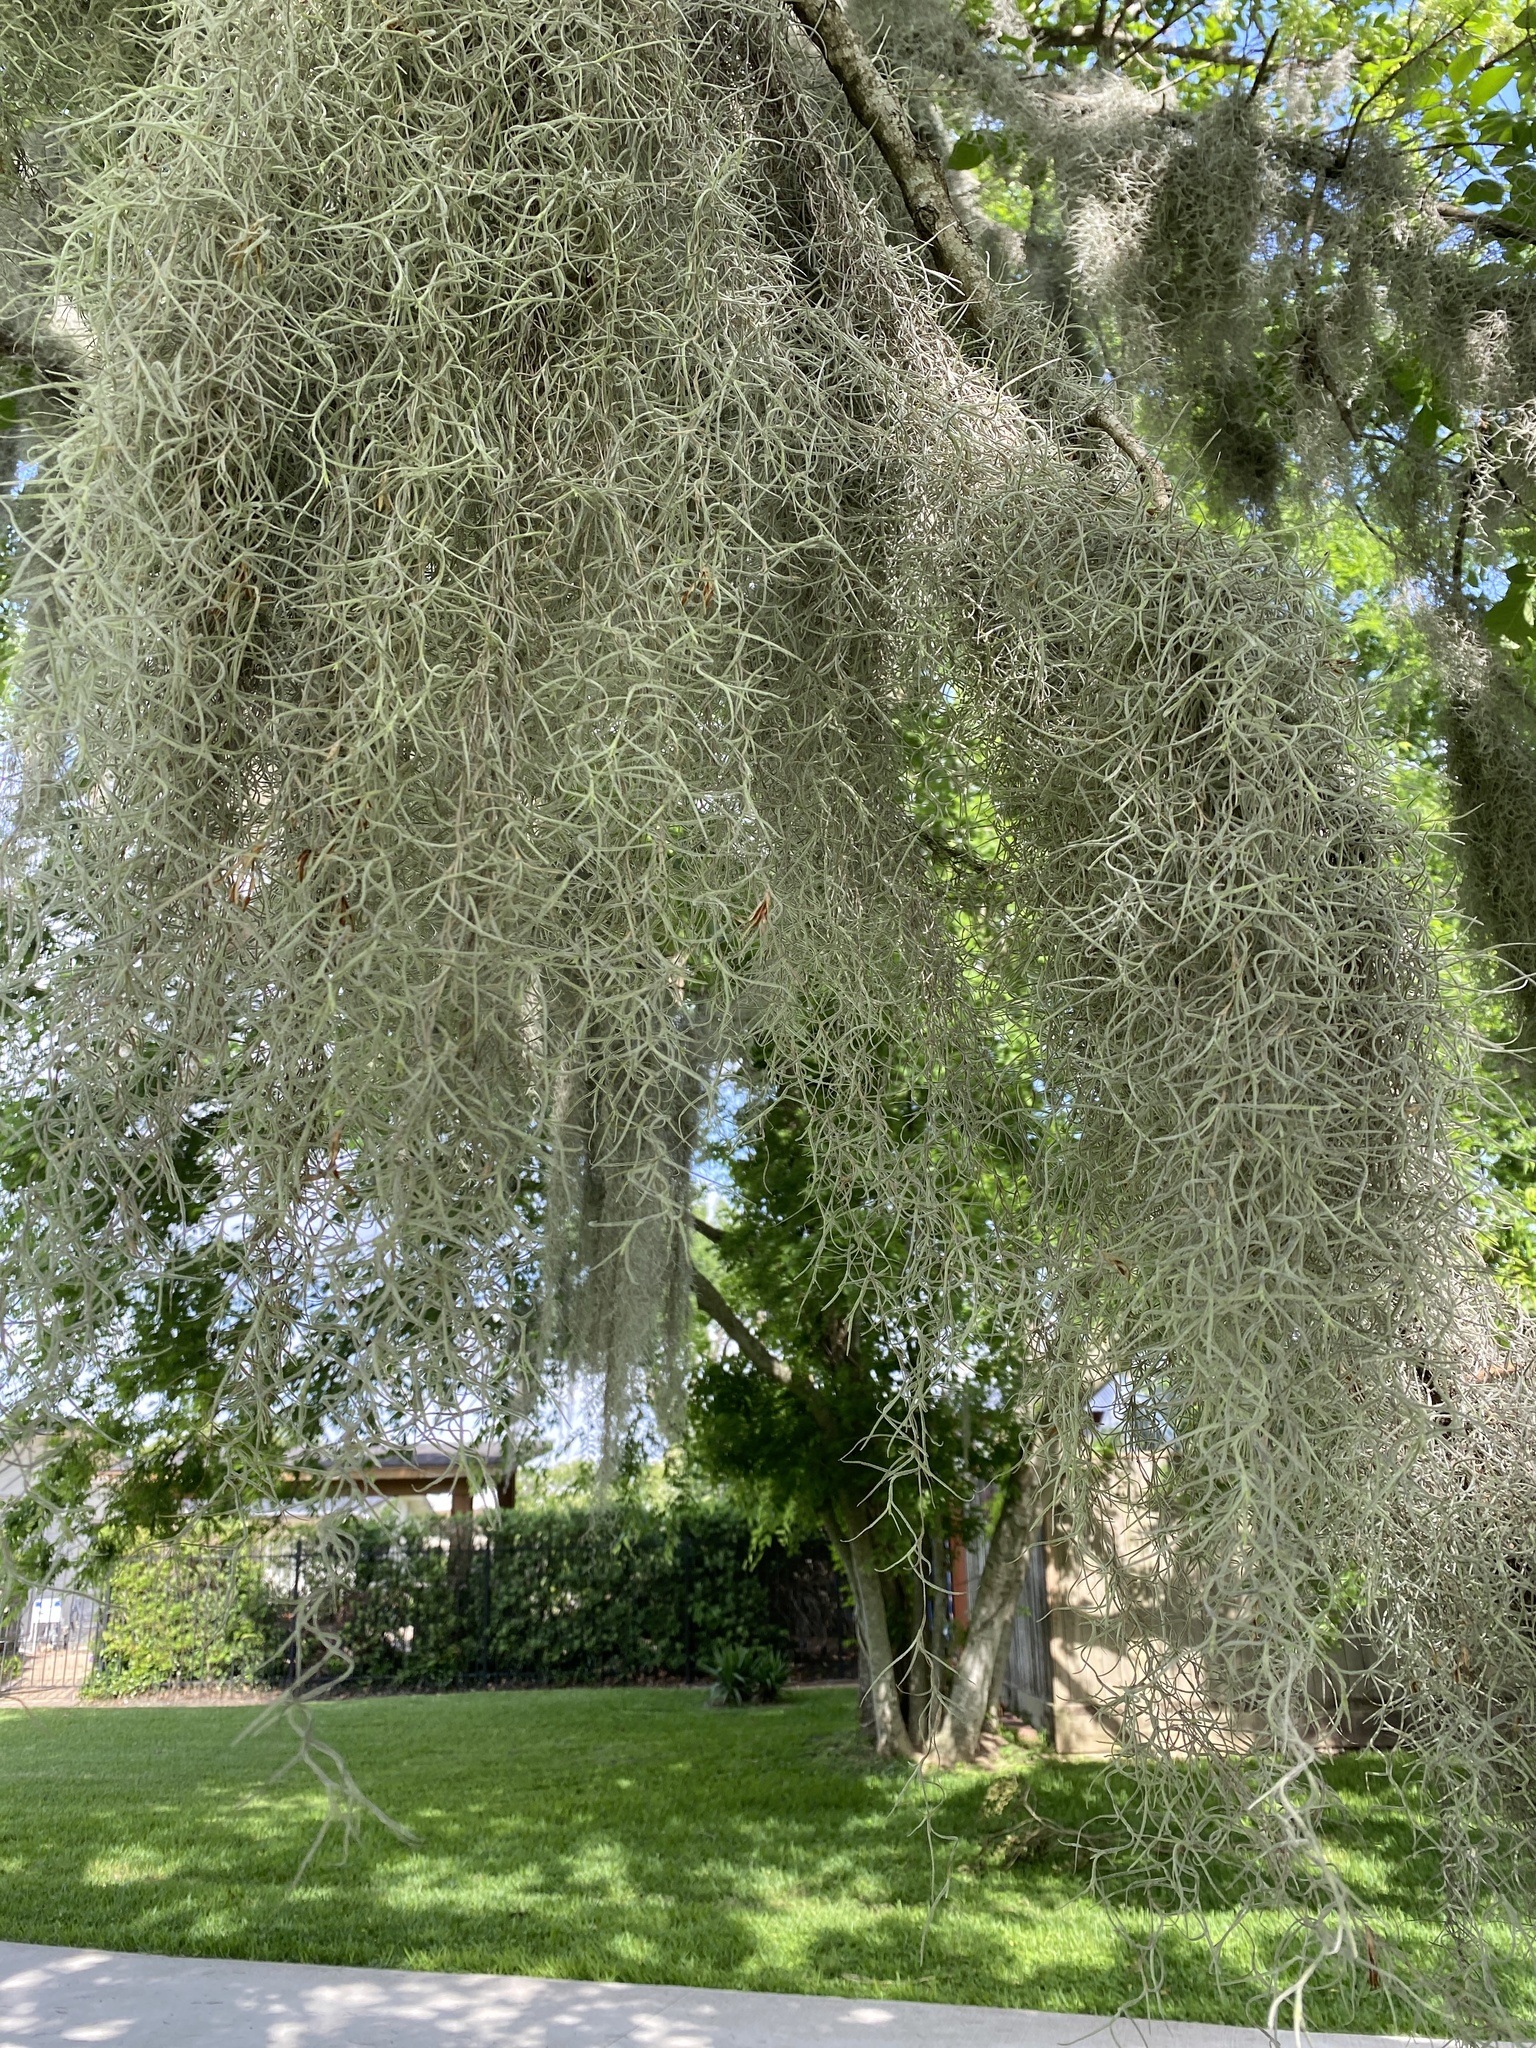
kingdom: Plantae
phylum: Tracheophyta
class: Liliopsida
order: Poales
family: Bromeliaceae
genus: Tillandsia
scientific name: Tillandsia usneoides
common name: Spanish moss
